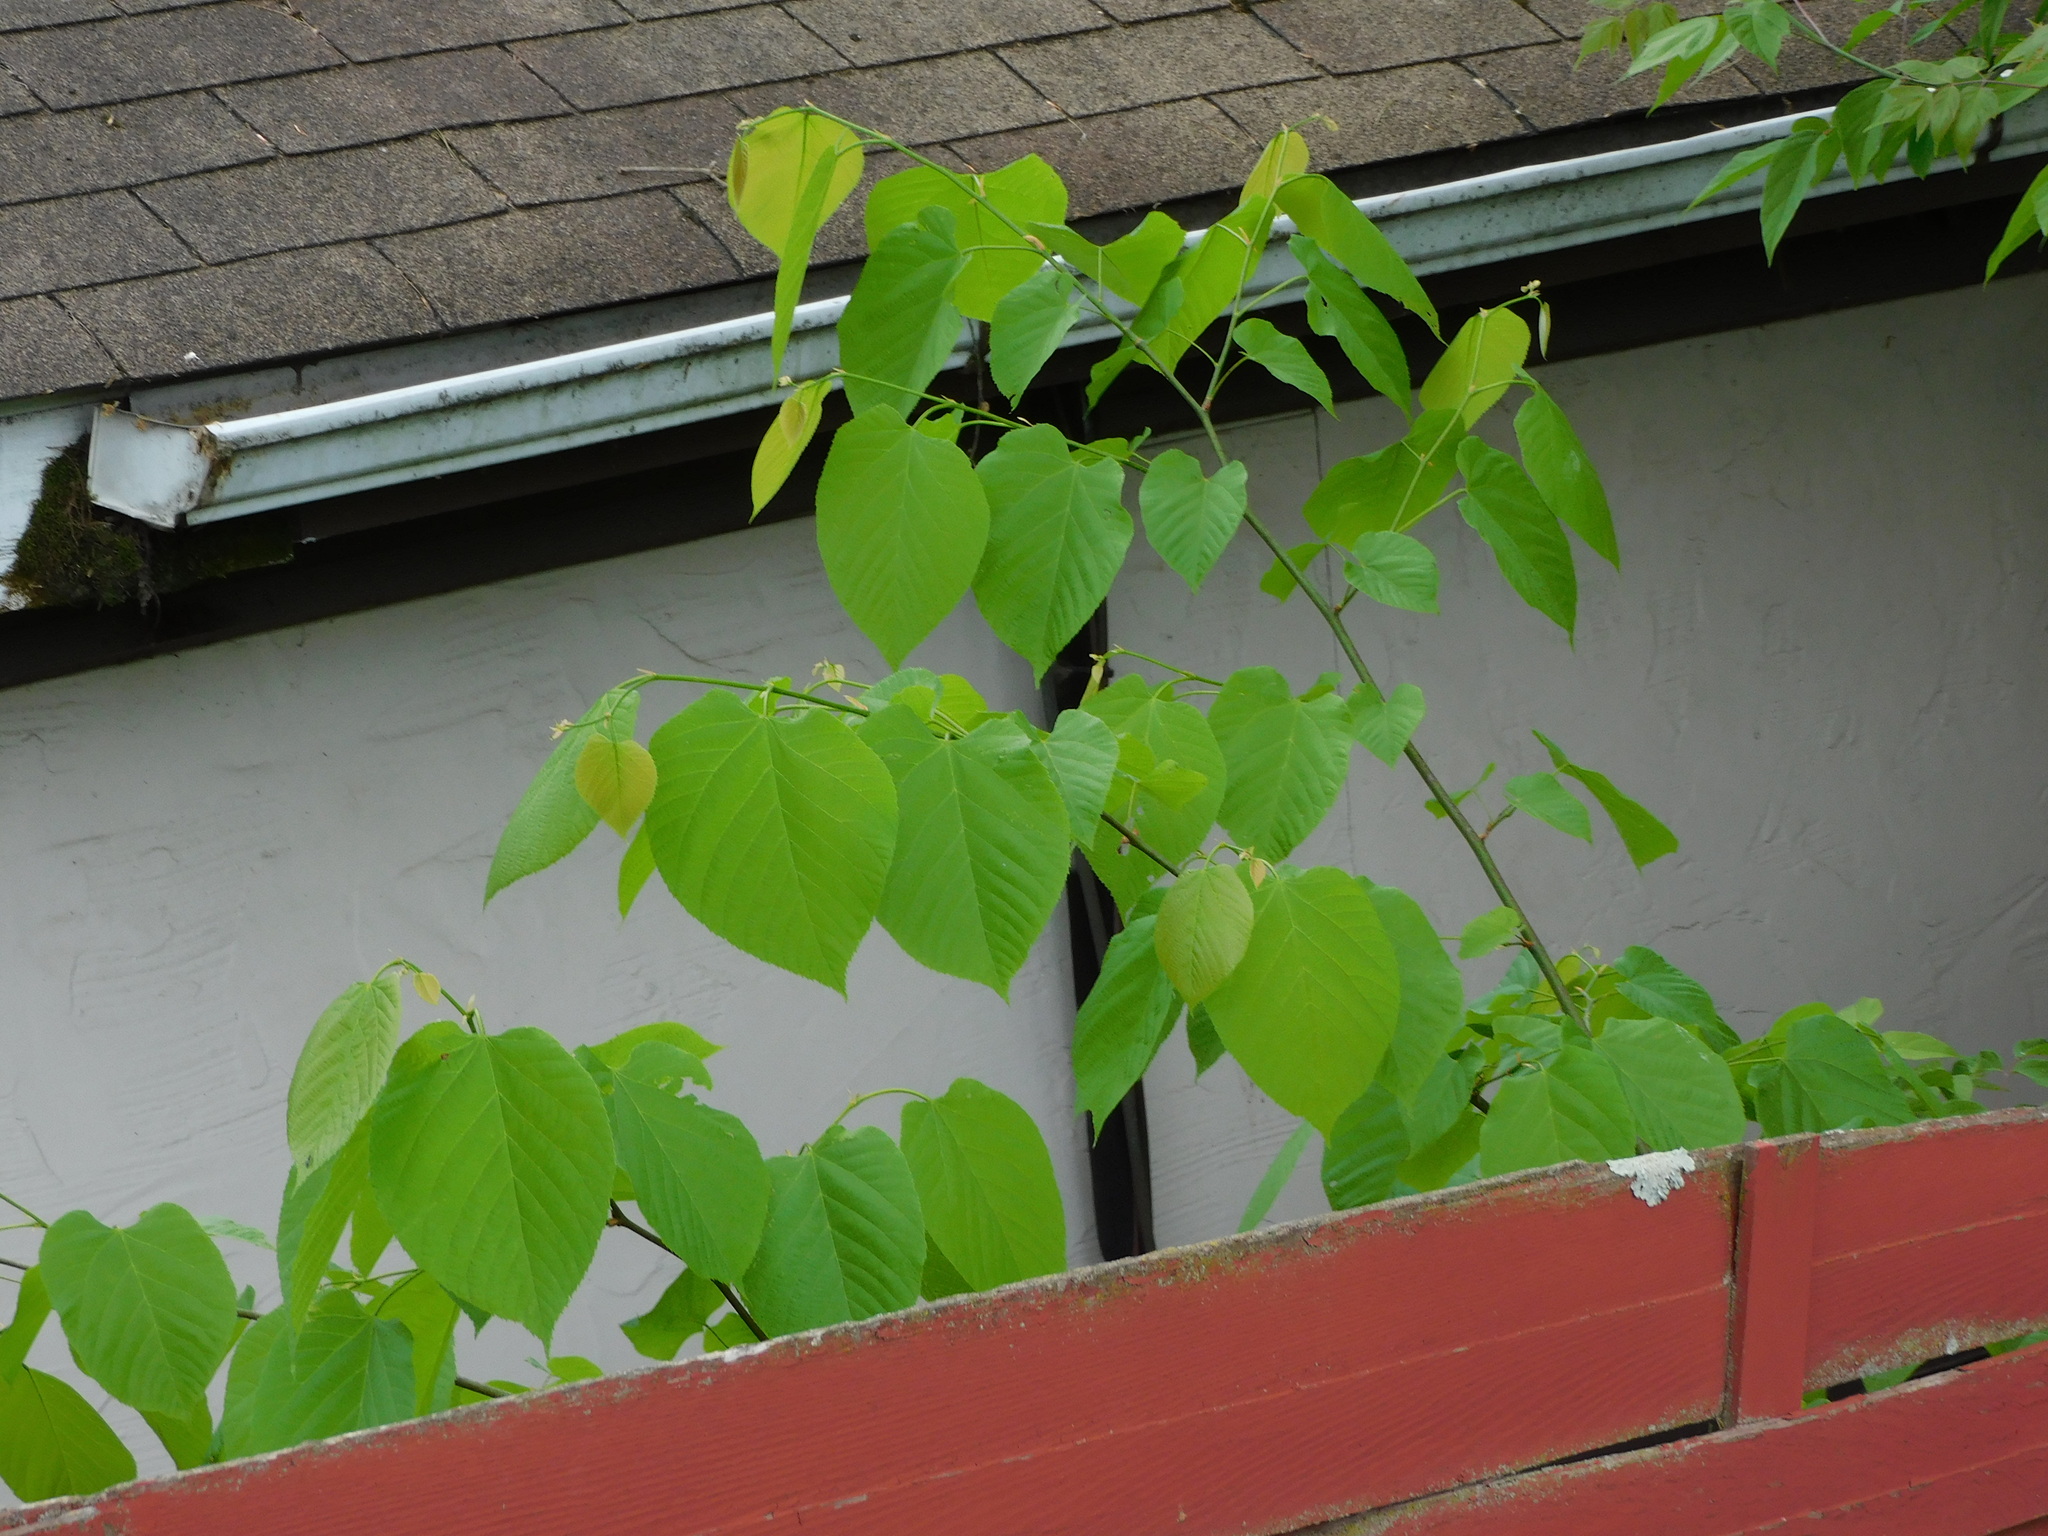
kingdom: Plantae
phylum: Tracheophyta
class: Magnoliopsida
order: Malvales
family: Malvaceae
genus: Tilia
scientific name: Tilia americana
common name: Basswood
